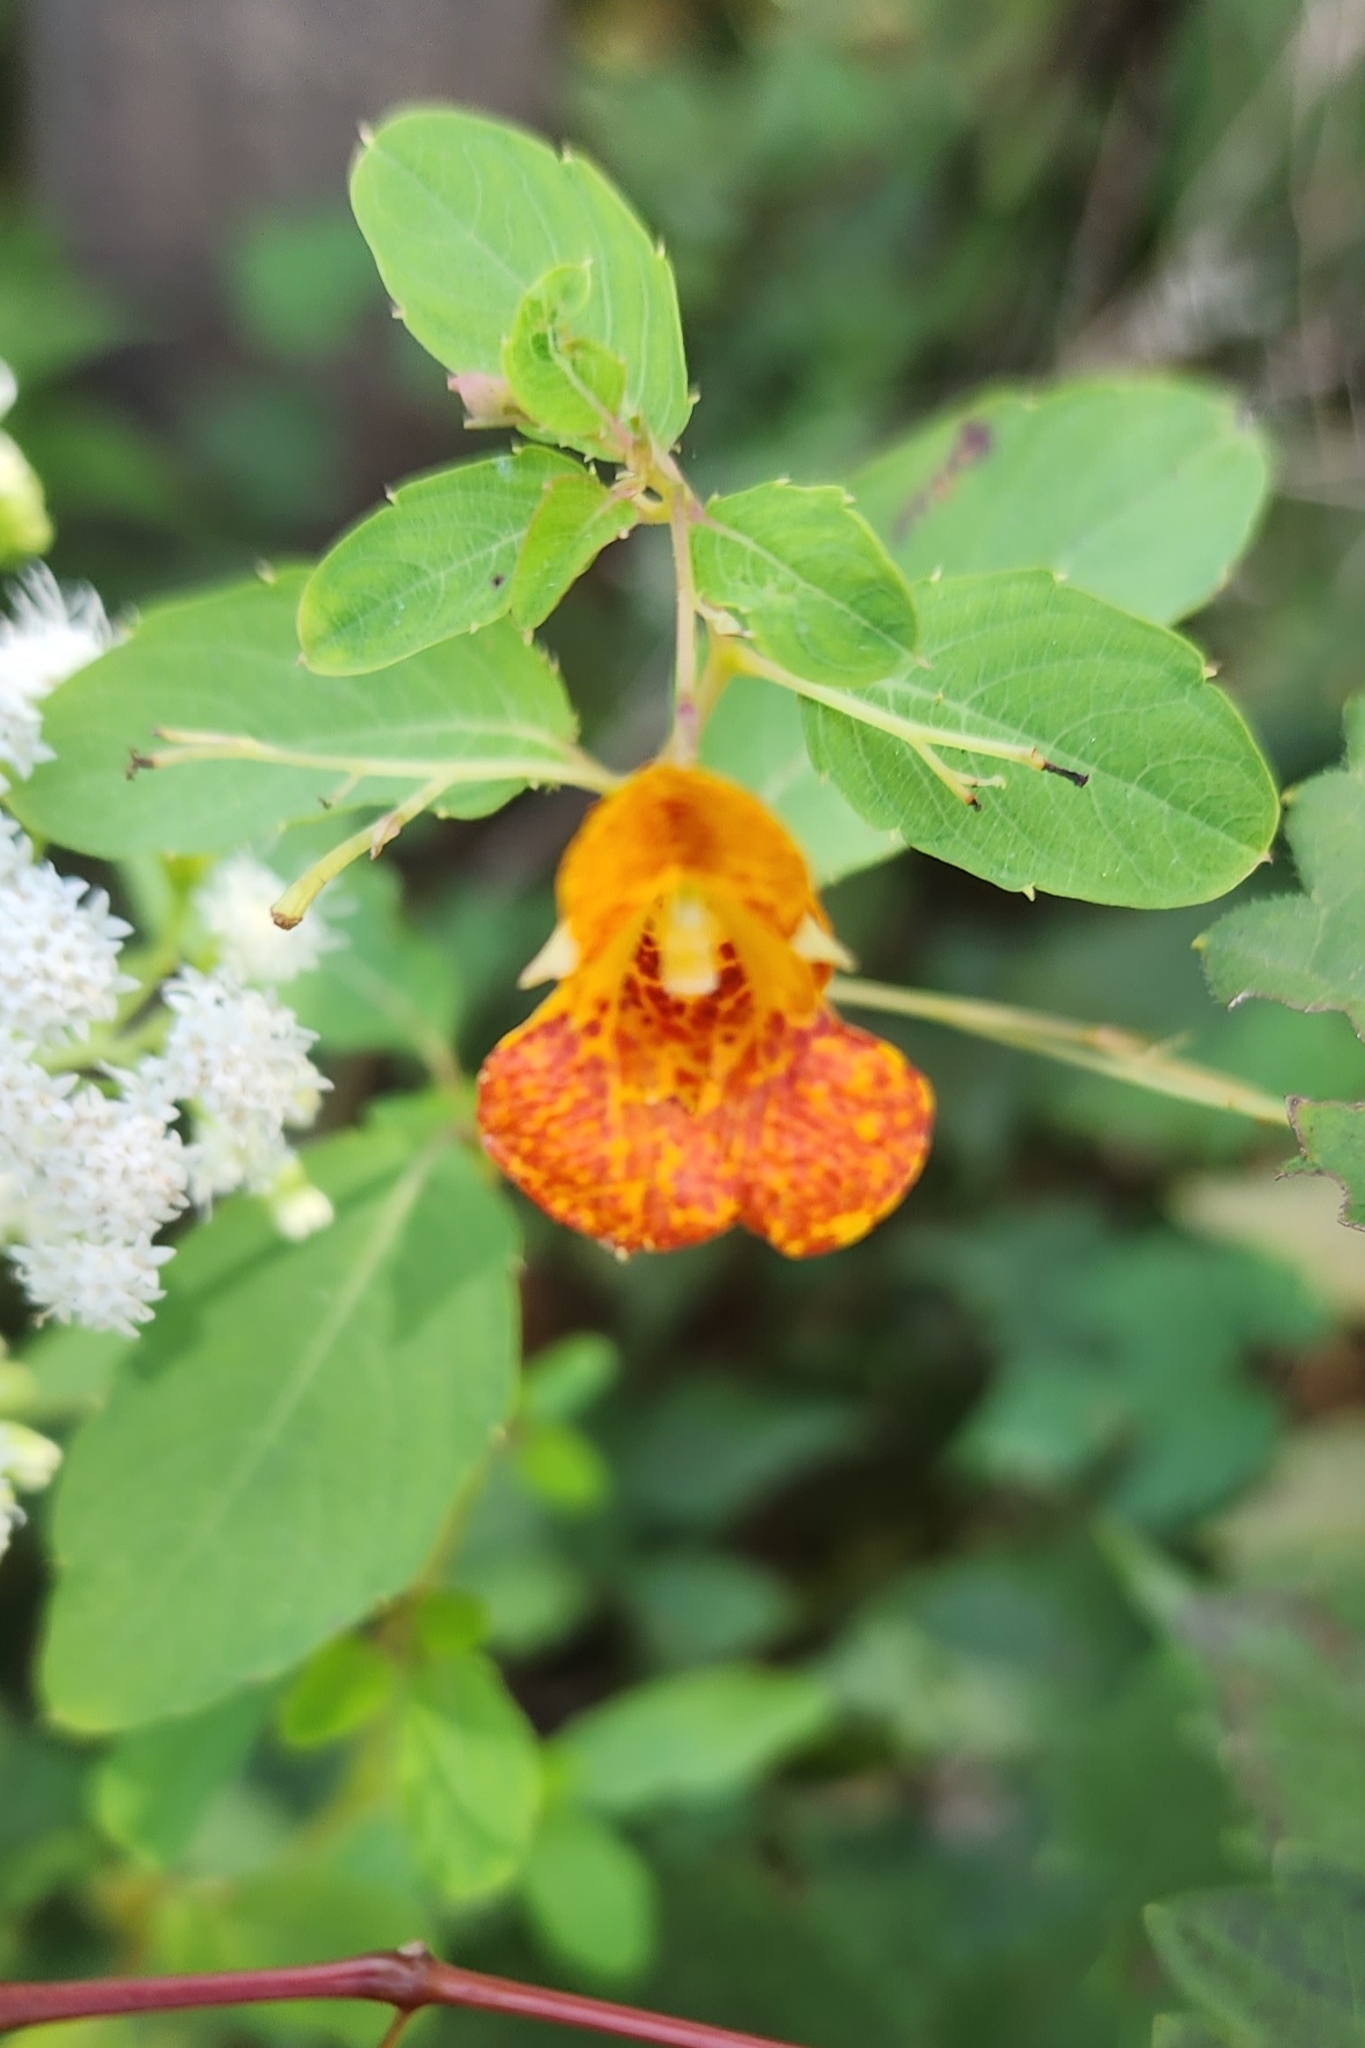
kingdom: Plantae
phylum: Tracheophyta
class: Magnoliopsida
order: Ericales
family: Balsaminaceae
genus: Impatiens
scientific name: Impatiens capensis
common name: Orange balsam
